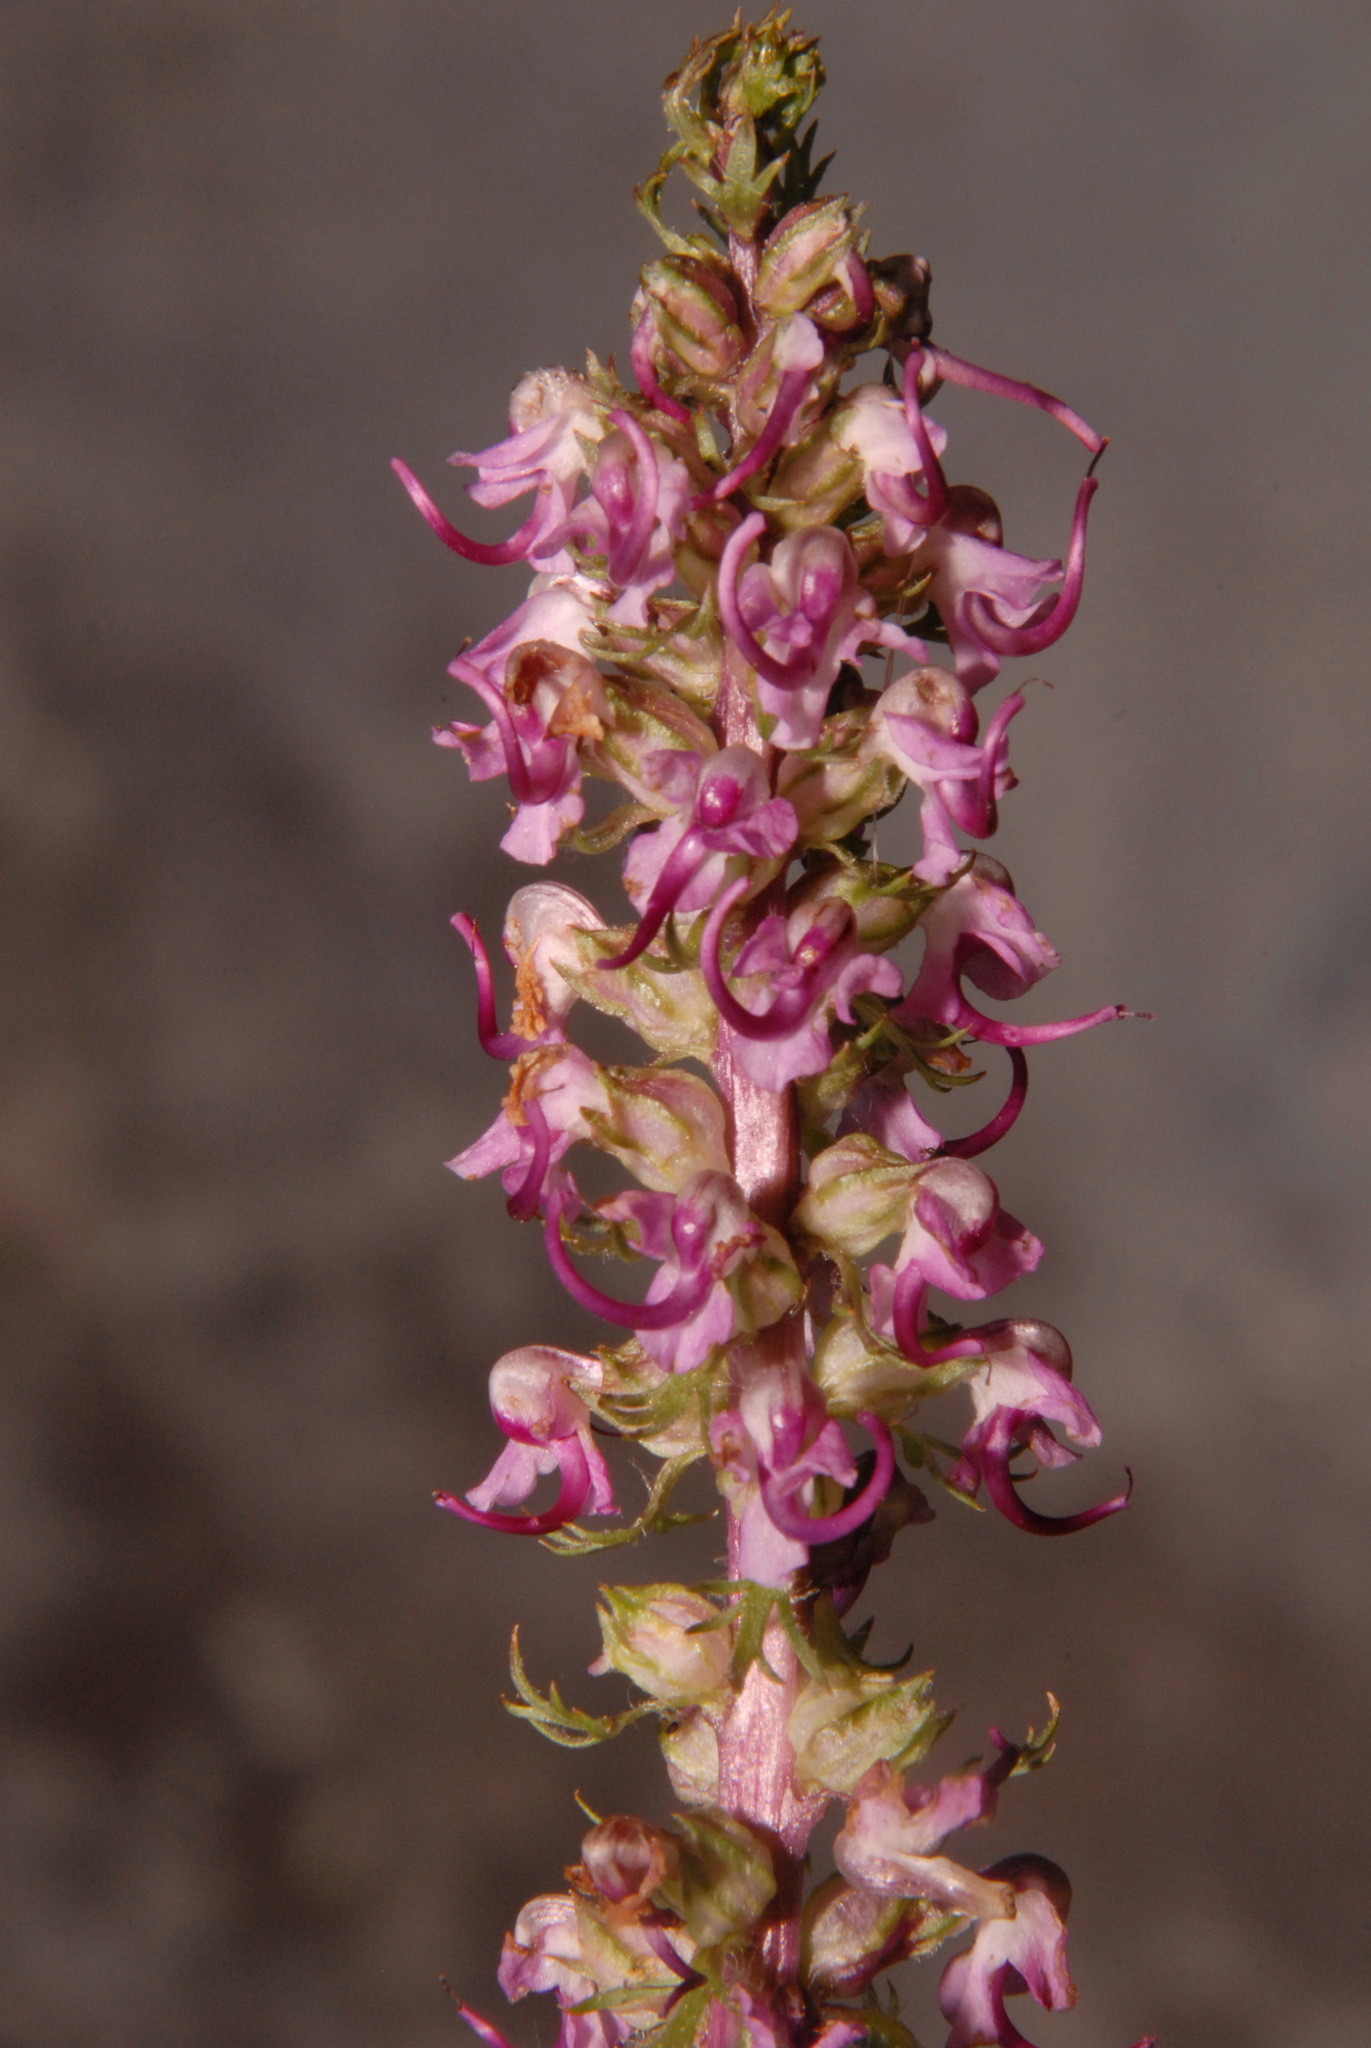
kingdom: Plantae
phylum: Tracheophyta
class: Magnoliopsida
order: Lamiales
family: Orobanchaceae
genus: Pedicularis
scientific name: Pedicularis groenlandica
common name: Elephant's-head
